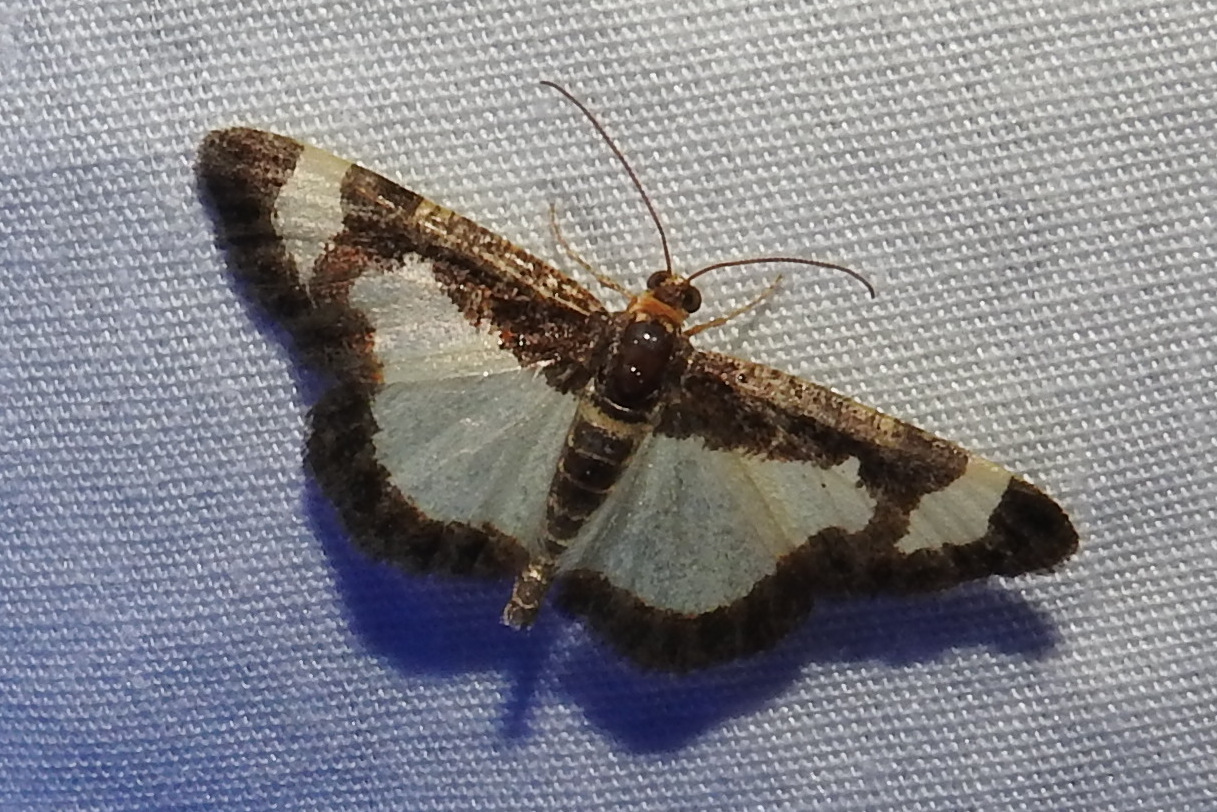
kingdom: Animalia
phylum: Arthropoda
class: Insecta
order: Lepidoptera
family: Geometridae
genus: Heliomata
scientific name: Heliomata cycladata
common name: Common spring moth
